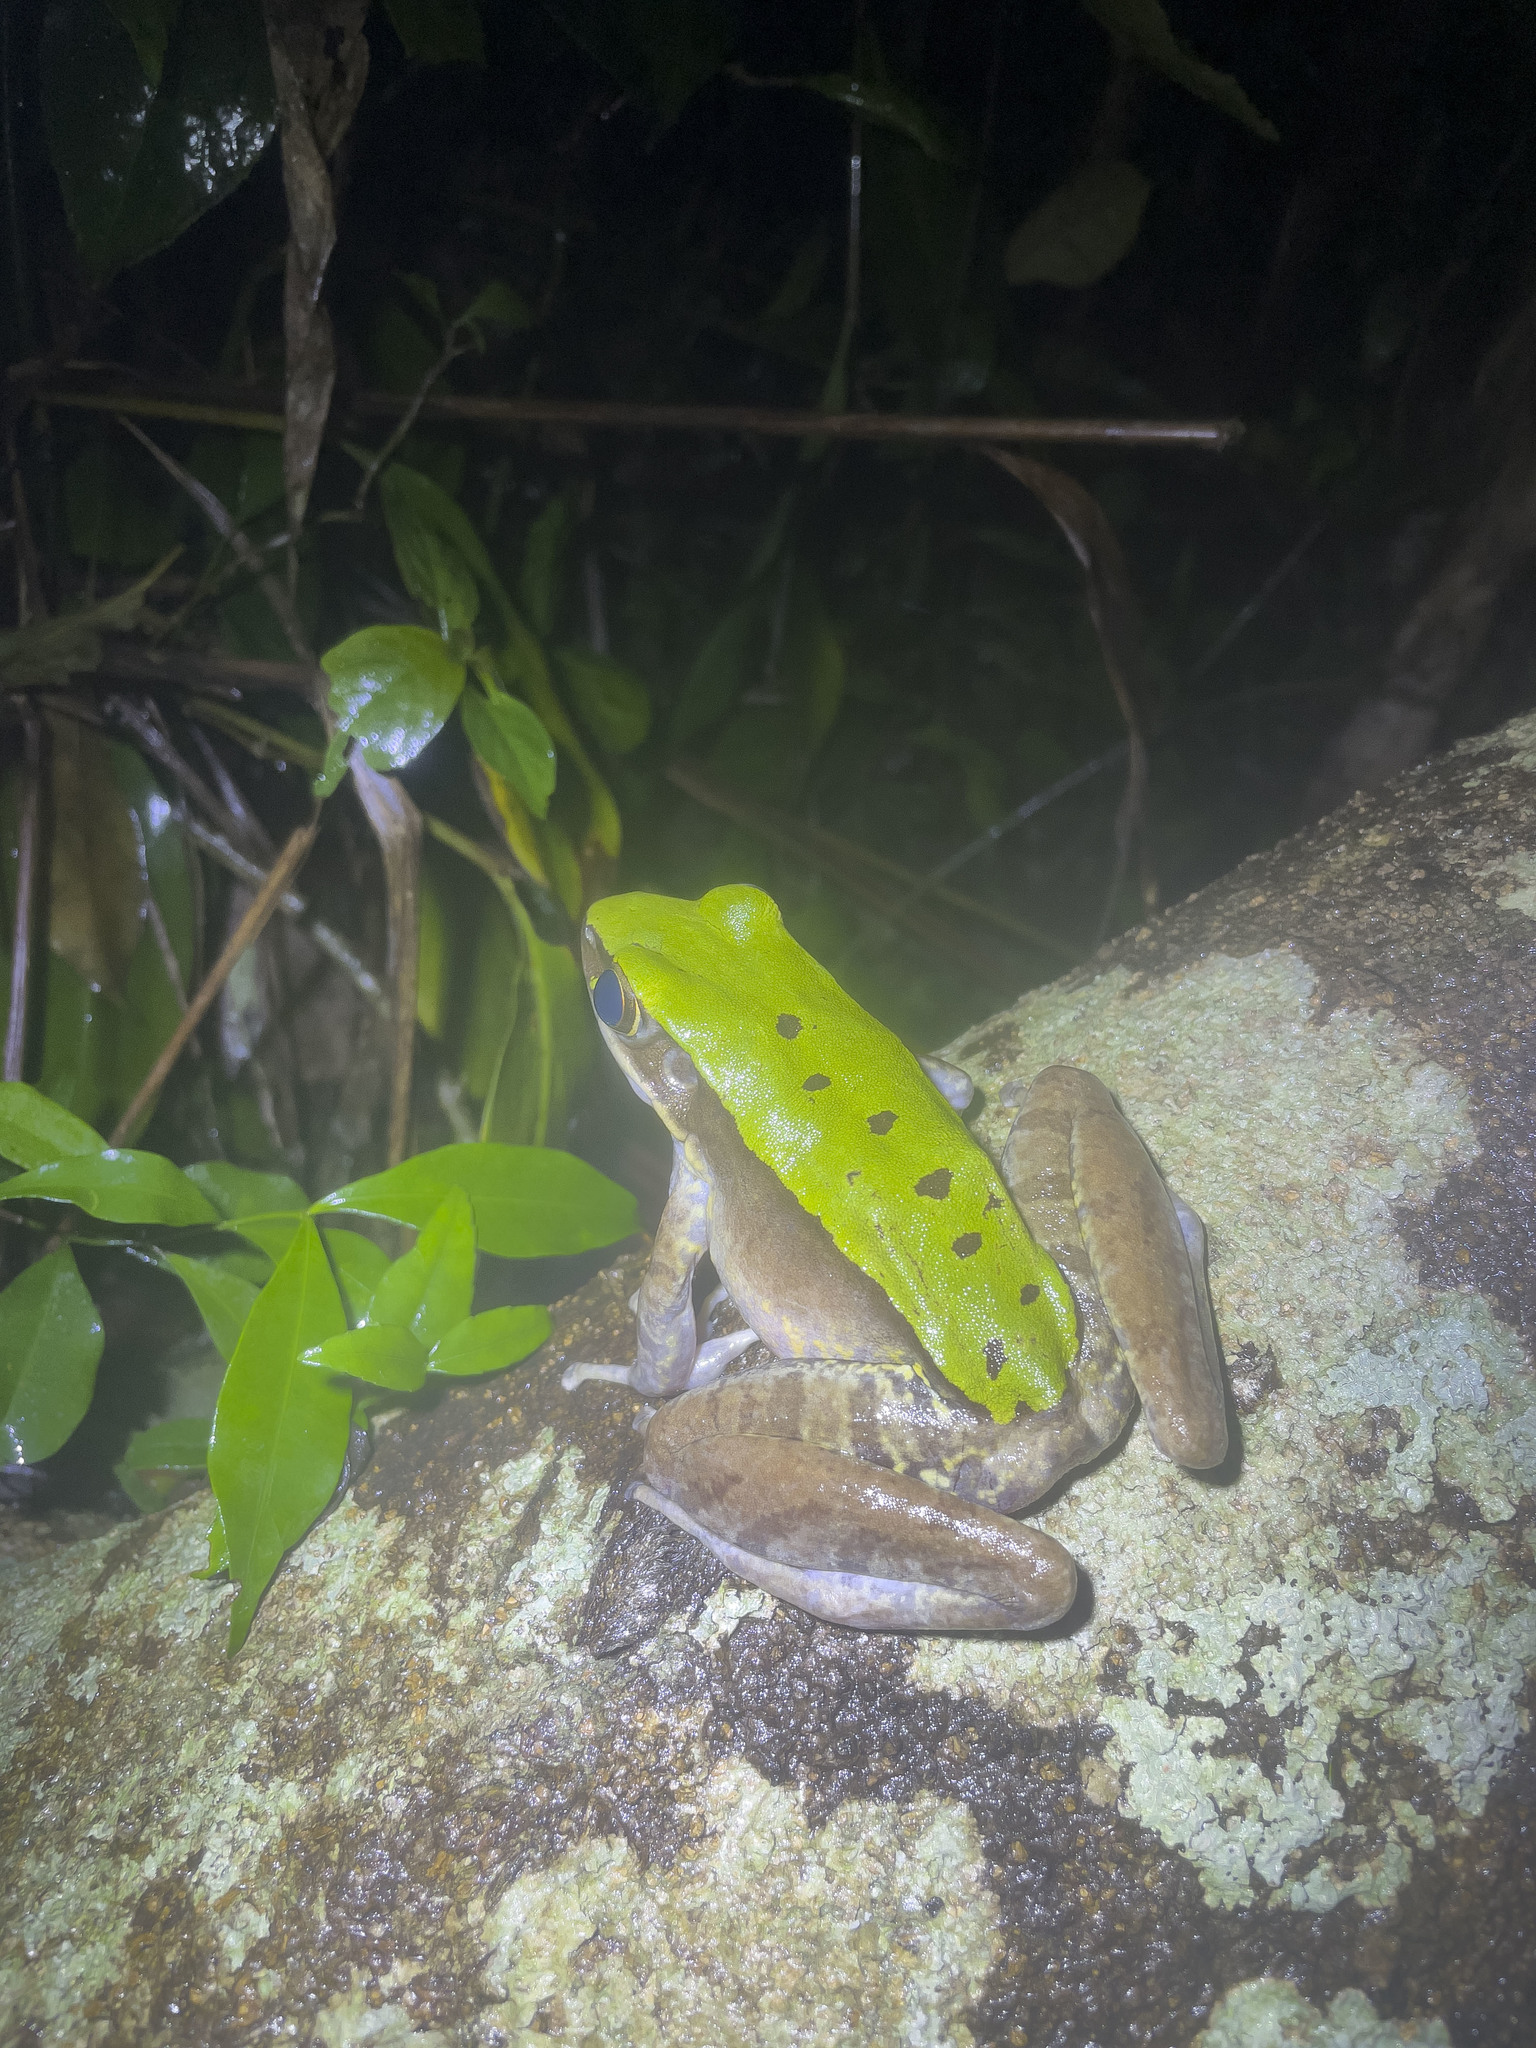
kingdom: Animalia
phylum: Chordata
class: Amphibia
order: Anura
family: Ranidae
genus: Odorrana
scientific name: Odorrana graminea
